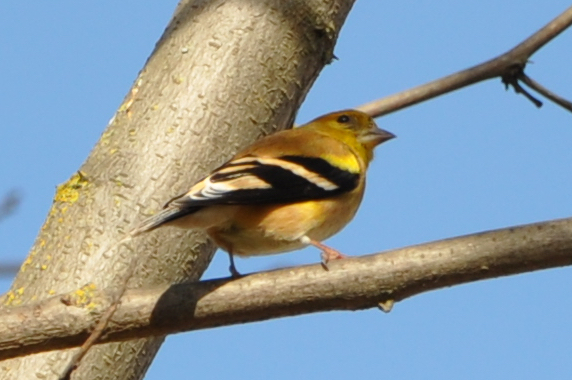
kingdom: Animalia
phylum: Chordata
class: Aves
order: Passeriformes
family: Fringillidae
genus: Spinus
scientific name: Spinus tristis
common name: American goldfinch
